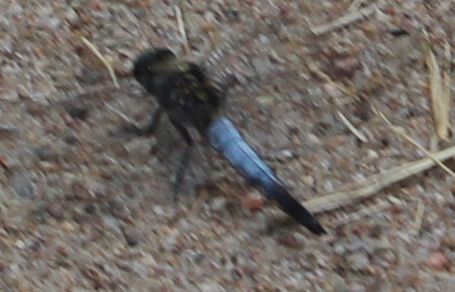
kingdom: Animalia
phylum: Arthropoda
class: Insecta
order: Odonata
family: Libellulidae
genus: Orthetrum
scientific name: Orthetrum cancellatum
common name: Black-tailed skimmer
